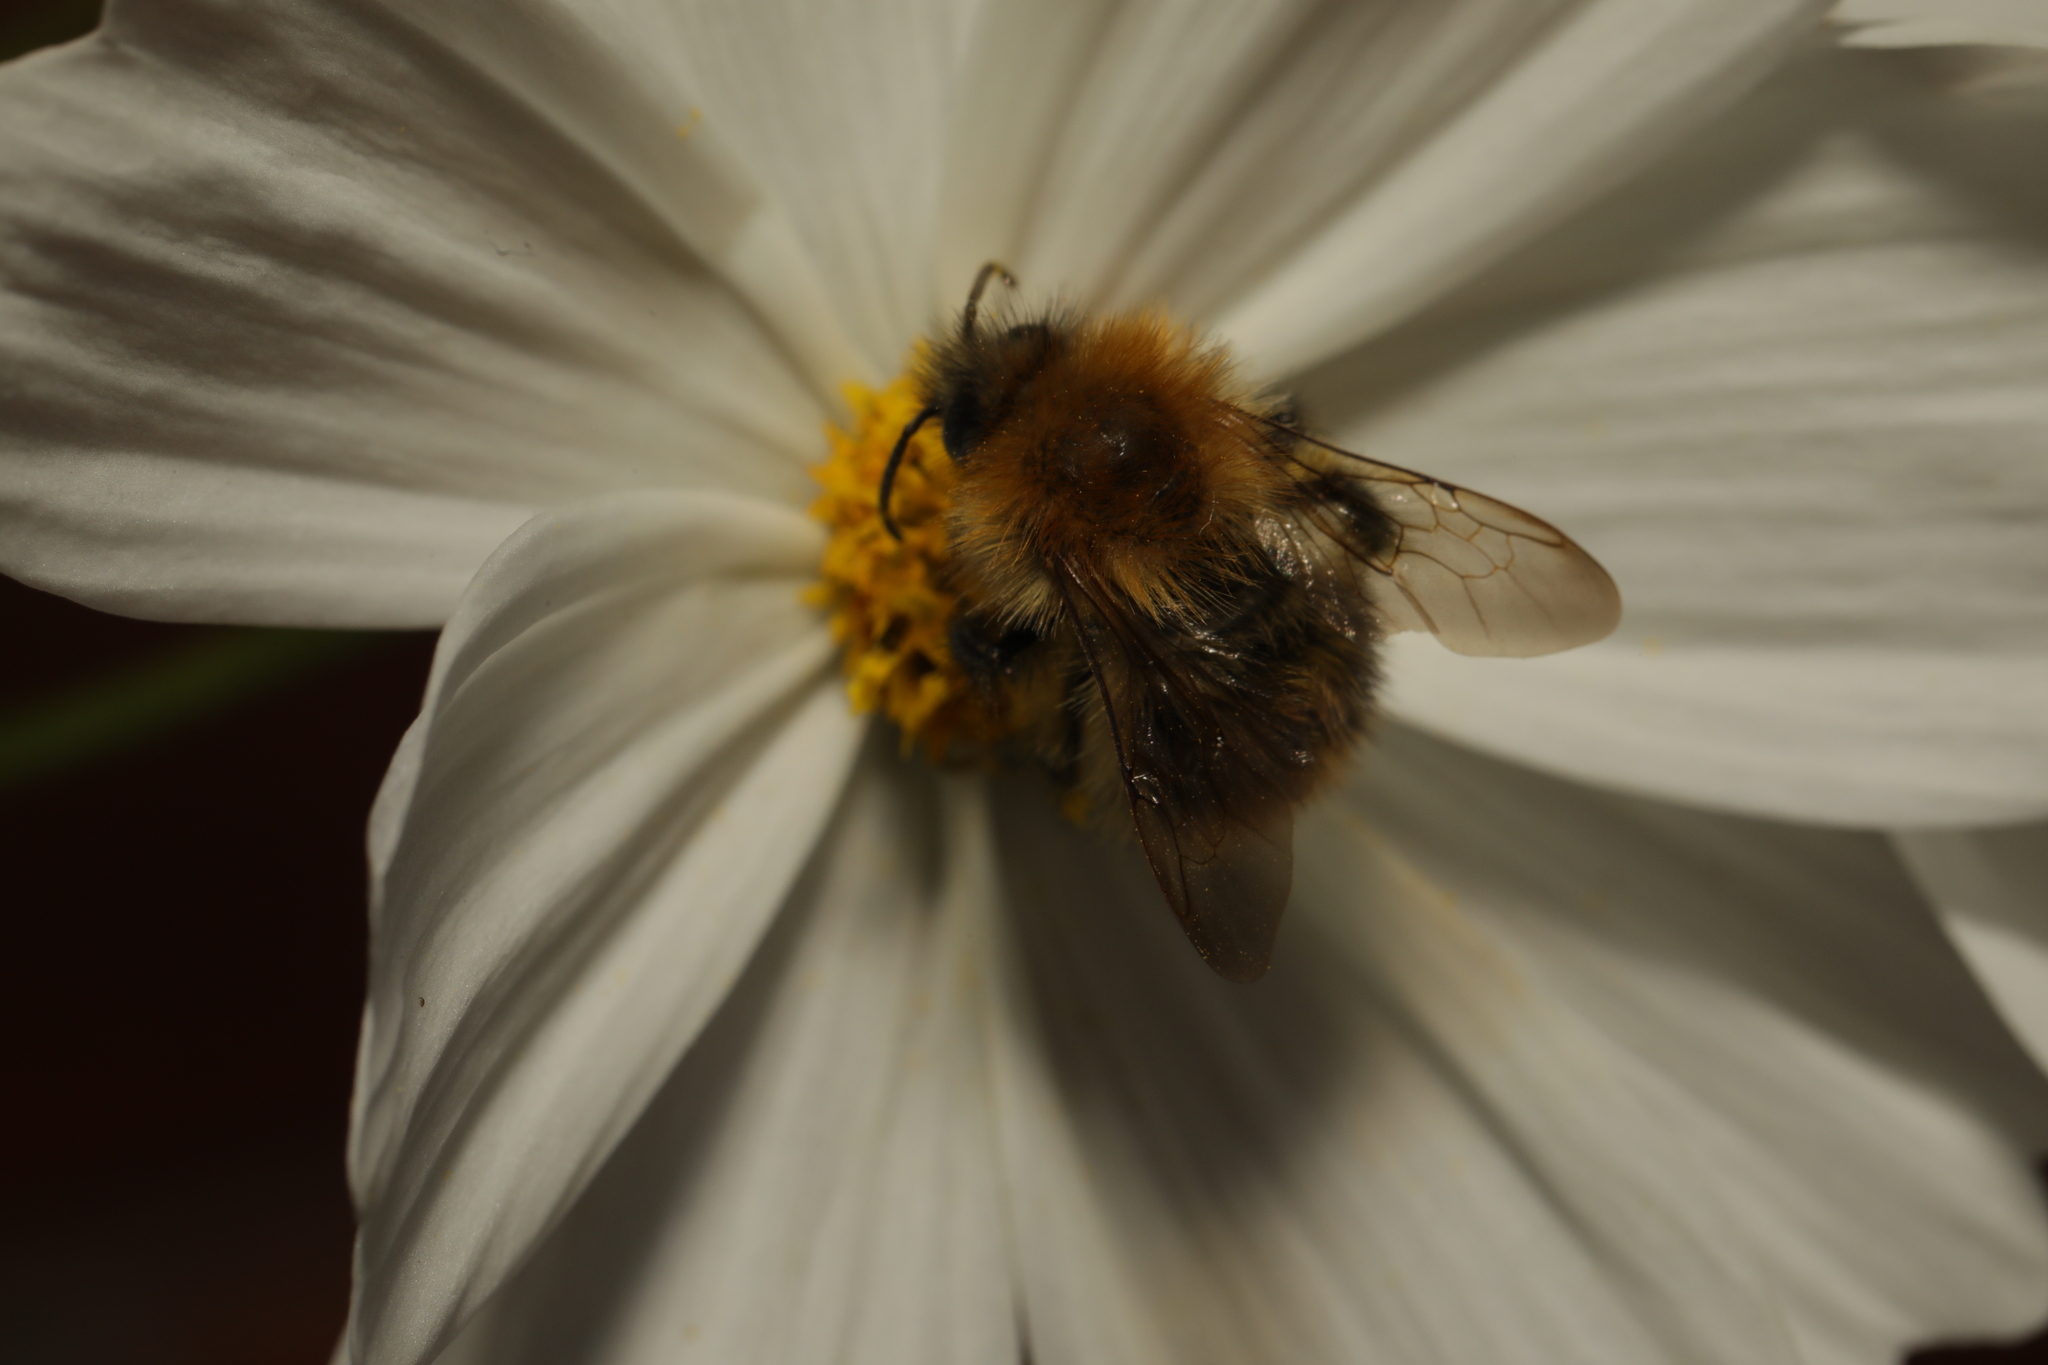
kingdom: Animalia
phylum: Arthropoda
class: Insecta
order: Hymenoptera
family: Apidae
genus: Bombus
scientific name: Bombus pascuorum
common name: Common carder bee
